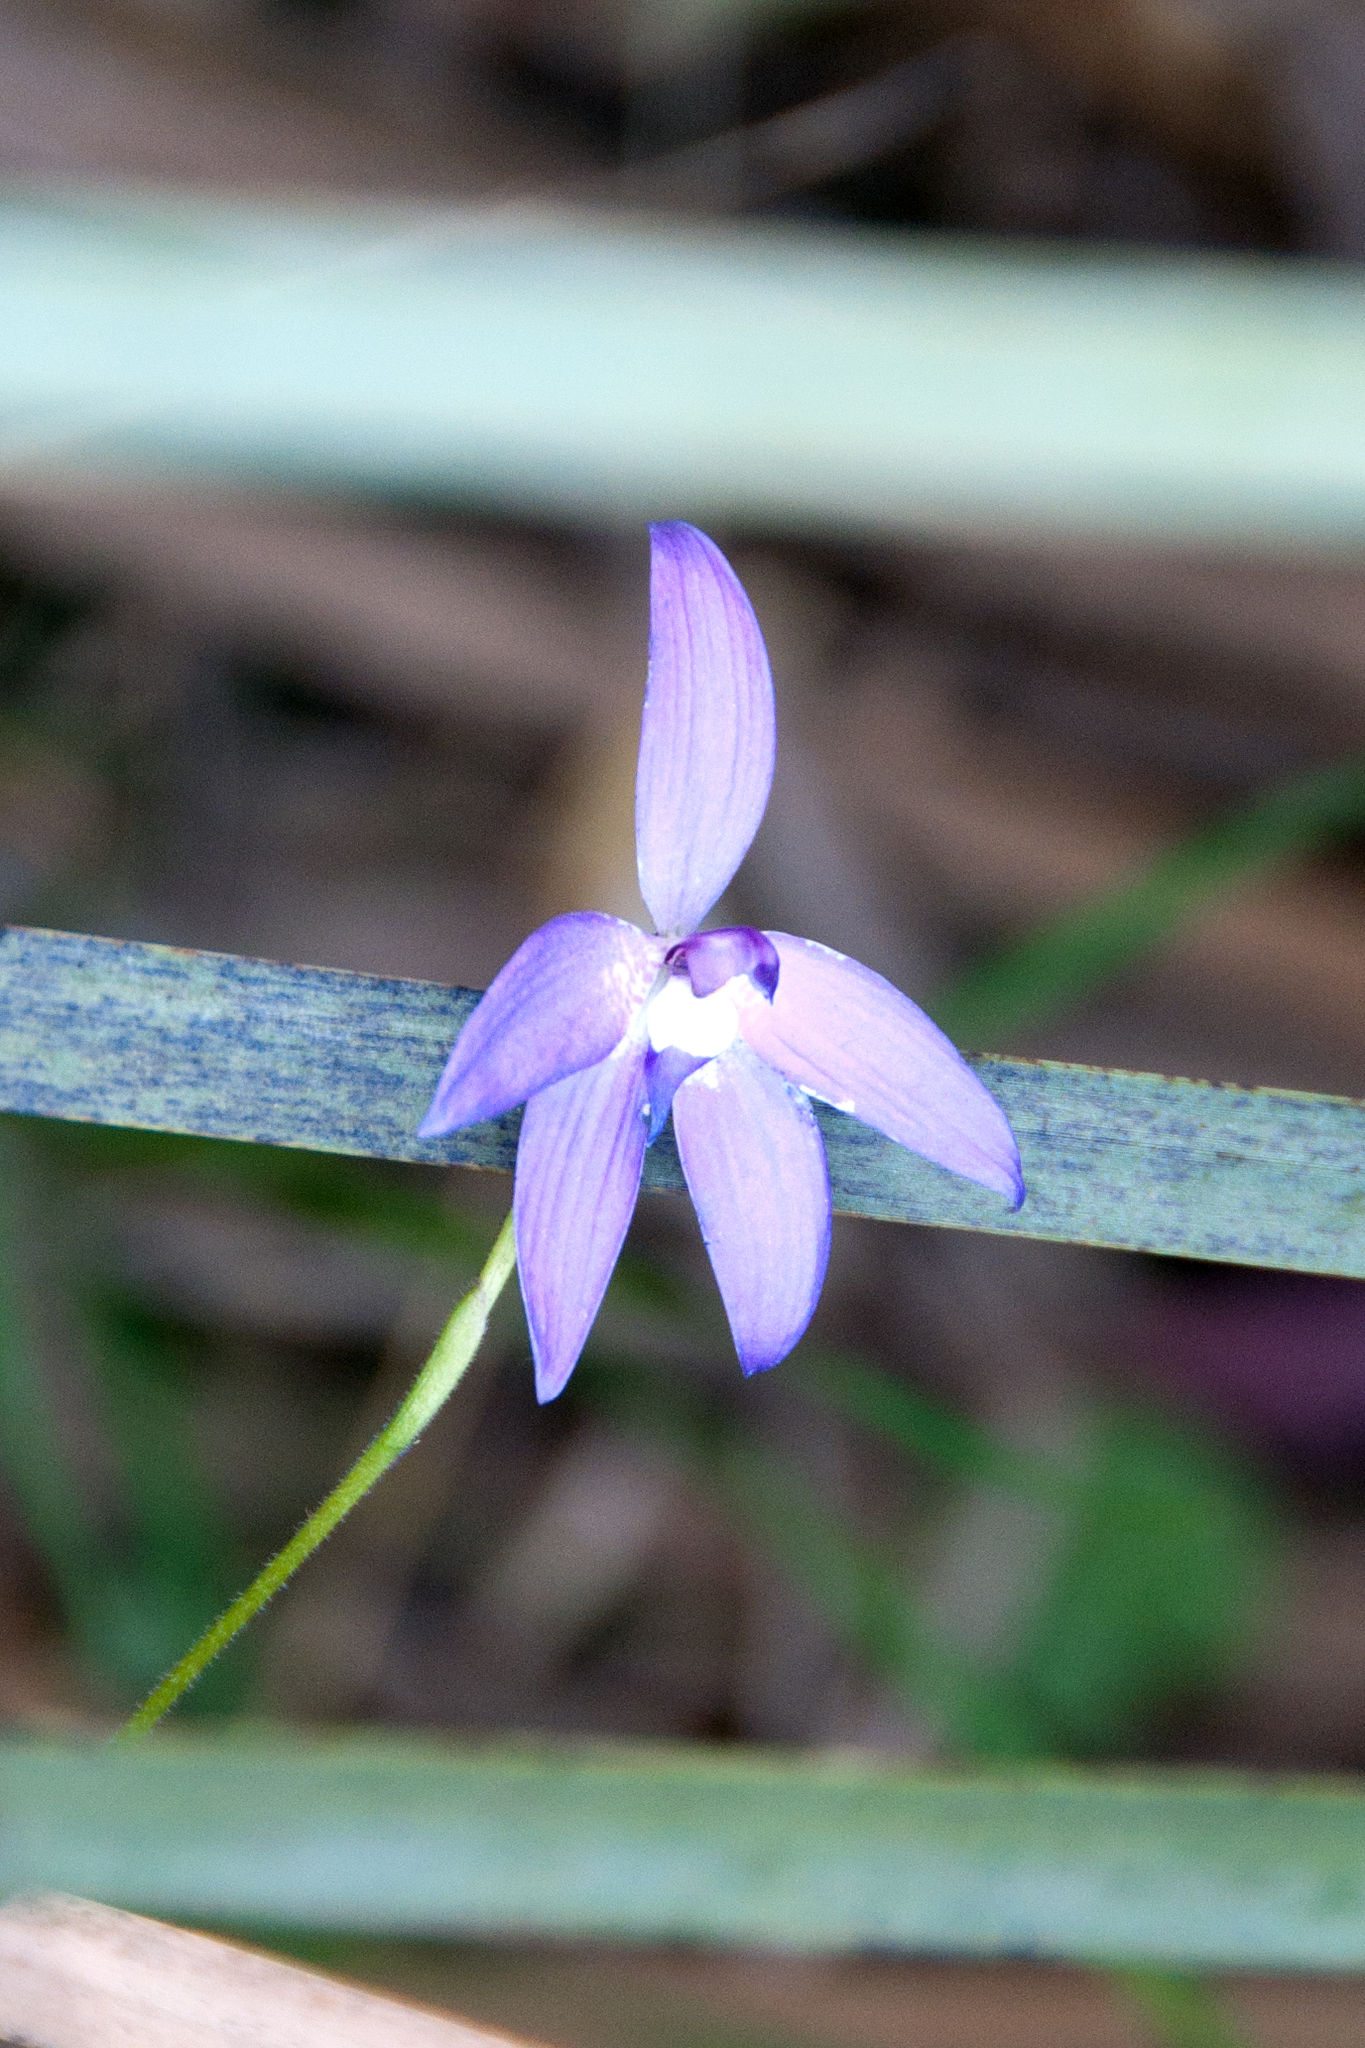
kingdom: Plantae
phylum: Tracheophyta
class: Liliopsida
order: Asparagales
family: Orchidaceae
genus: Caladenia
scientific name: Caladenia major
